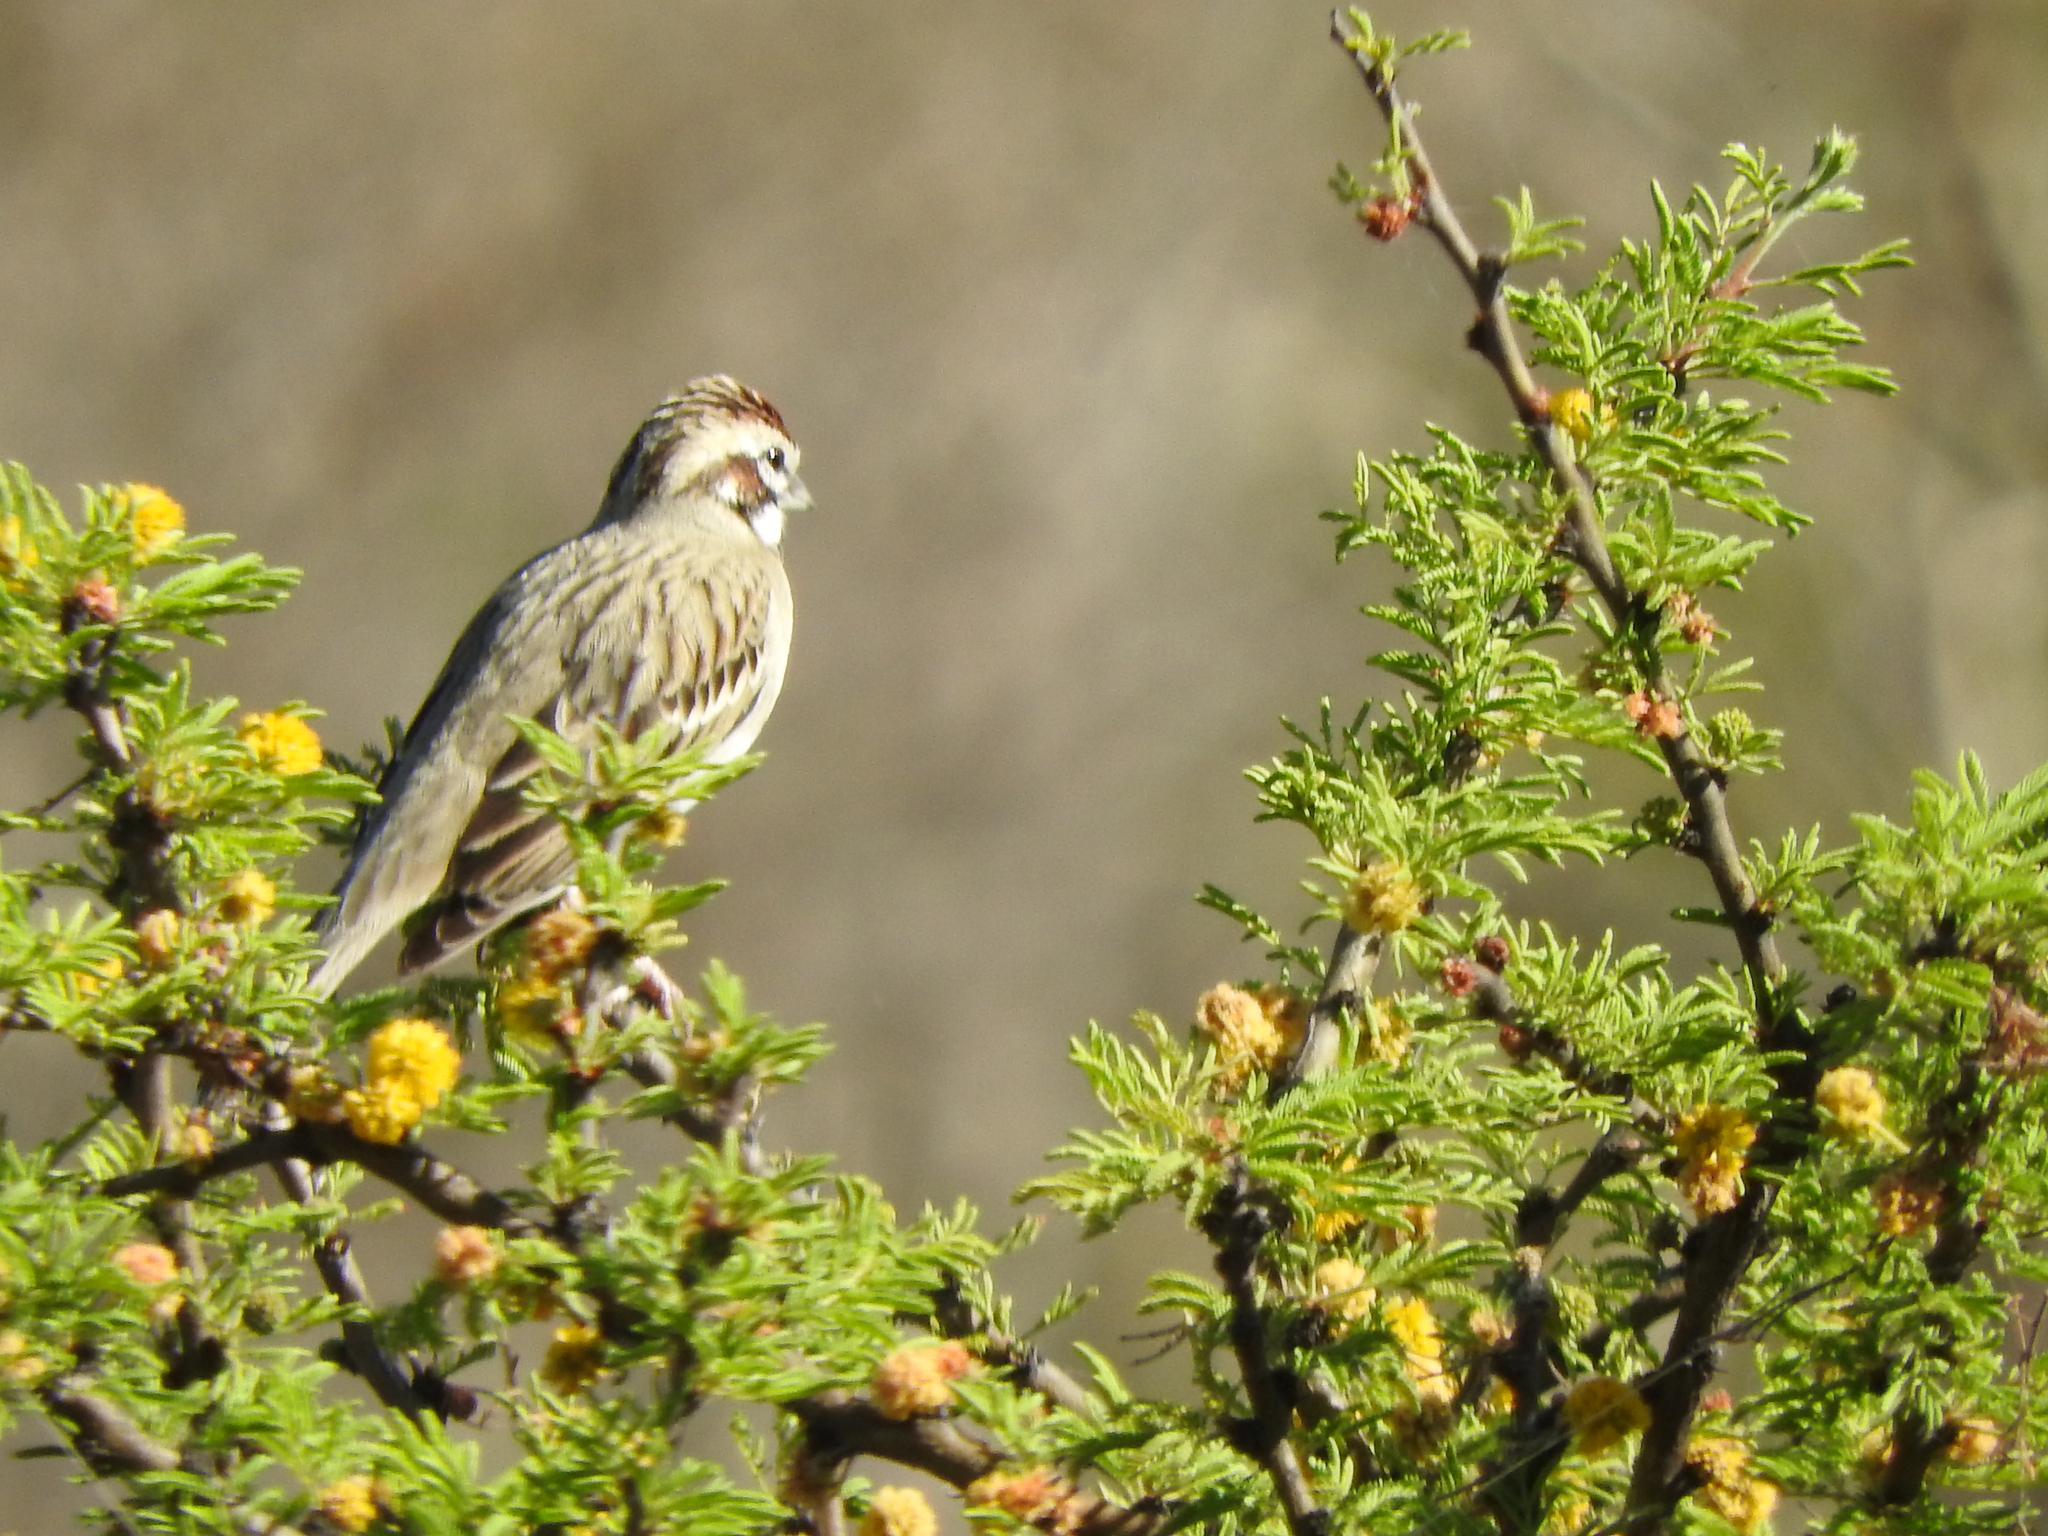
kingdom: Animalia
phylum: Chordata
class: Aves
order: Passeriformes
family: Passerellidae
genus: Chondestes
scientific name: Chondestes grammacus
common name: Lark sparrow
